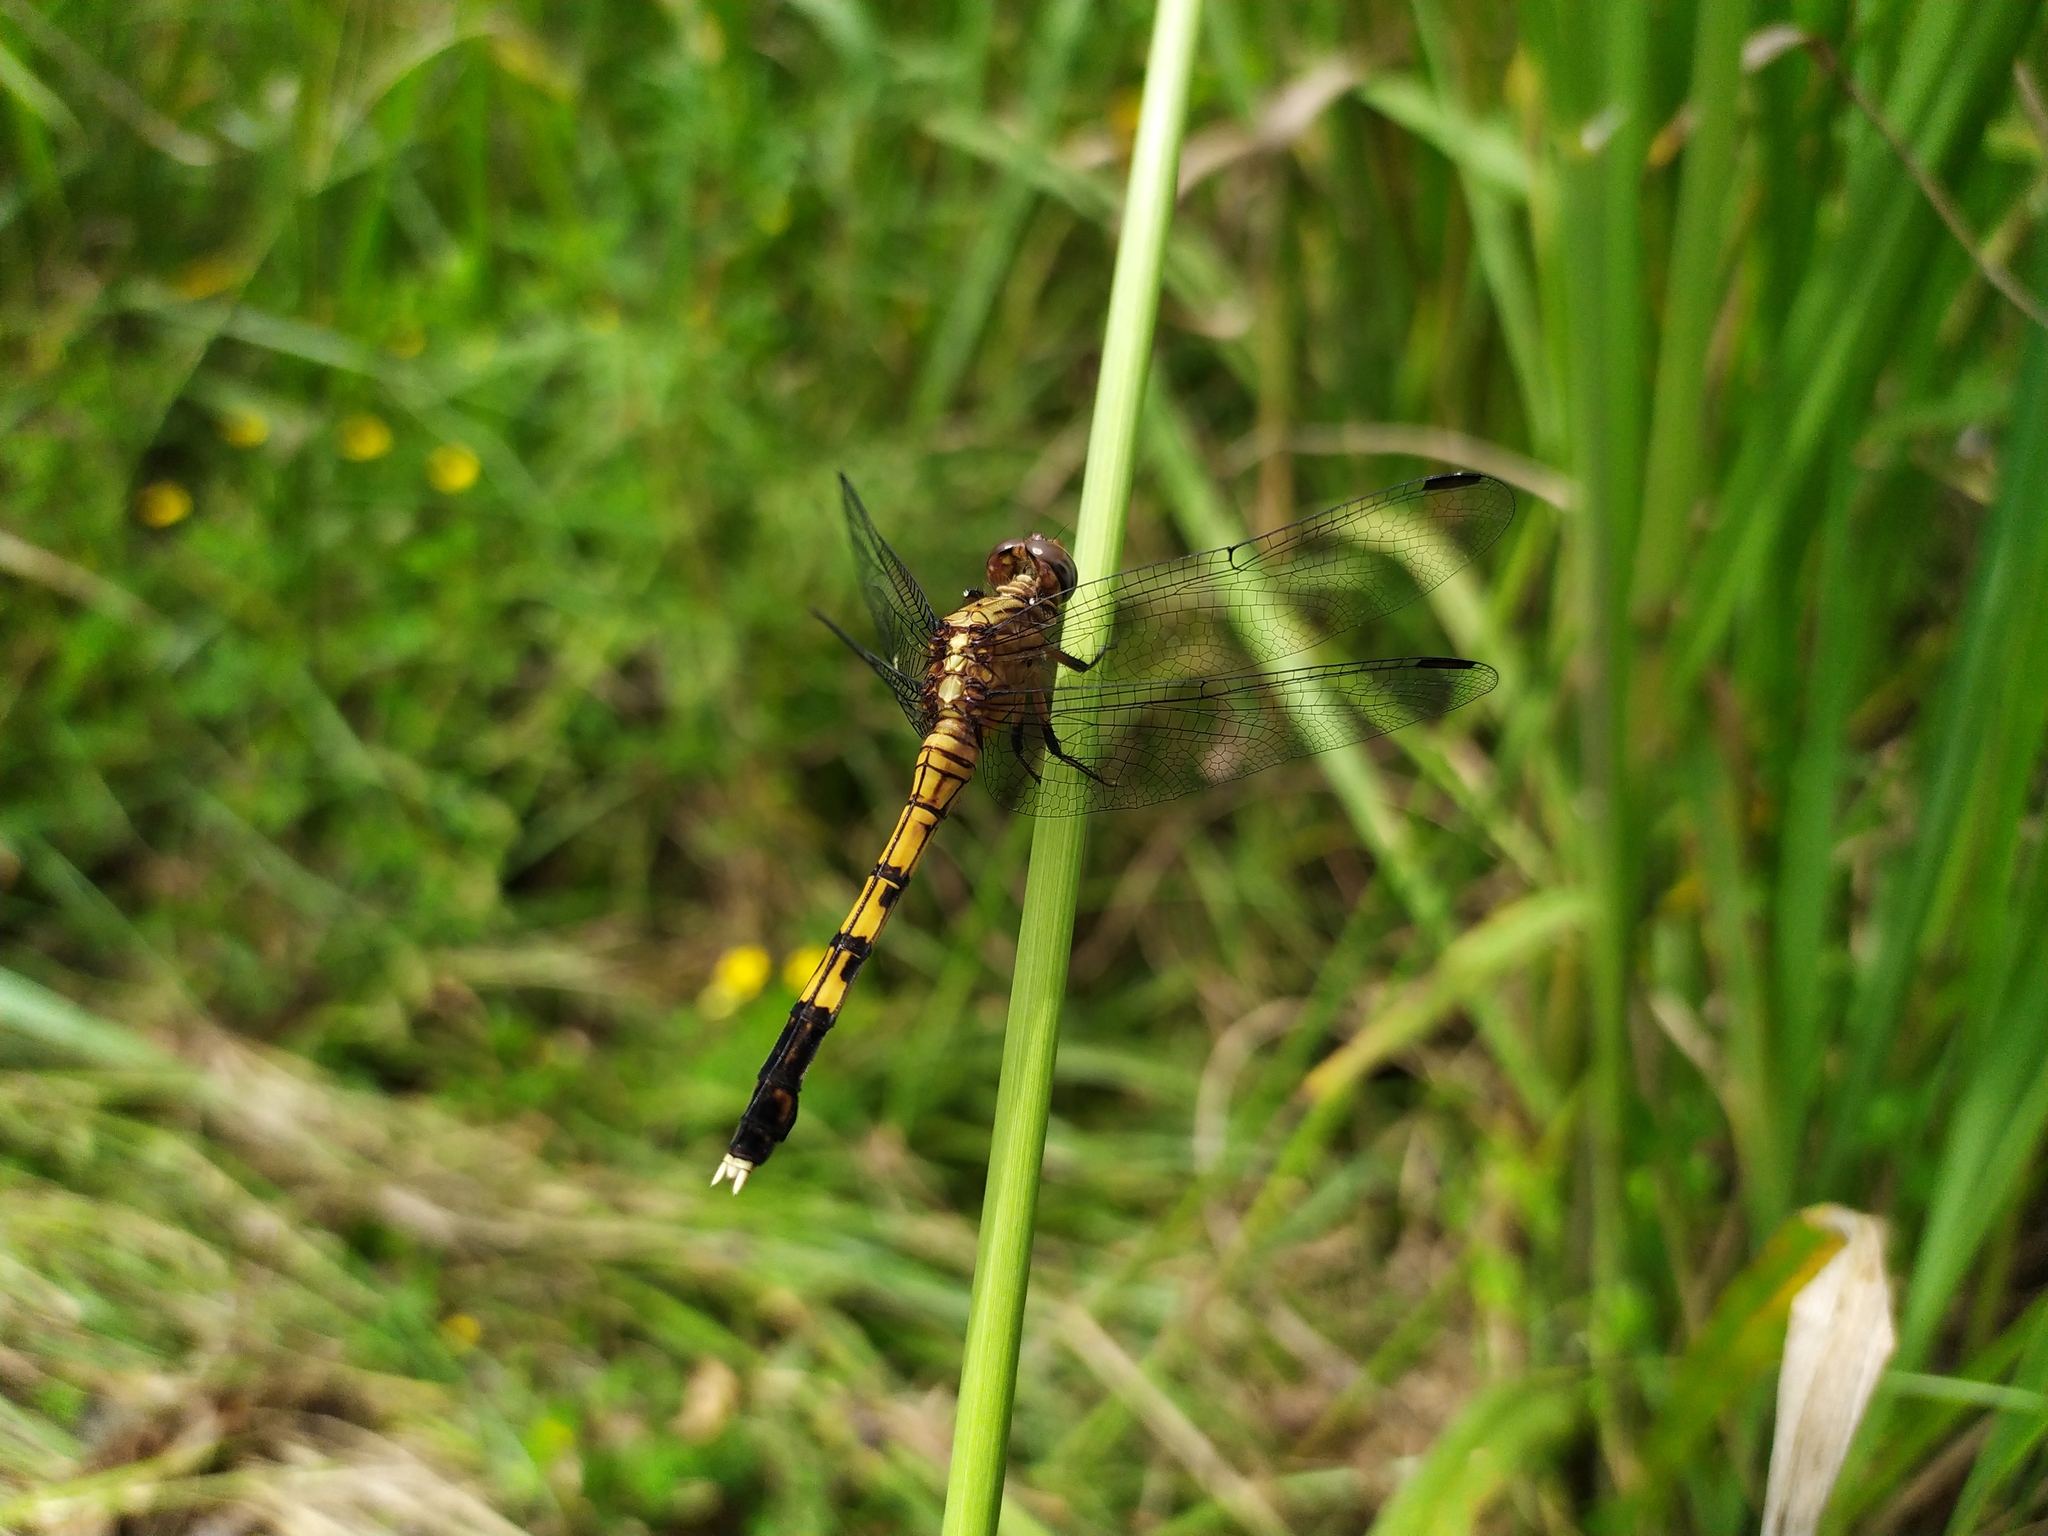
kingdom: Animalia
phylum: Arthropoda
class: Insecta
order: Odonata
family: Libellulidae
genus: Orthetrum
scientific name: Orthetrum julia
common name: Julia skimmer
